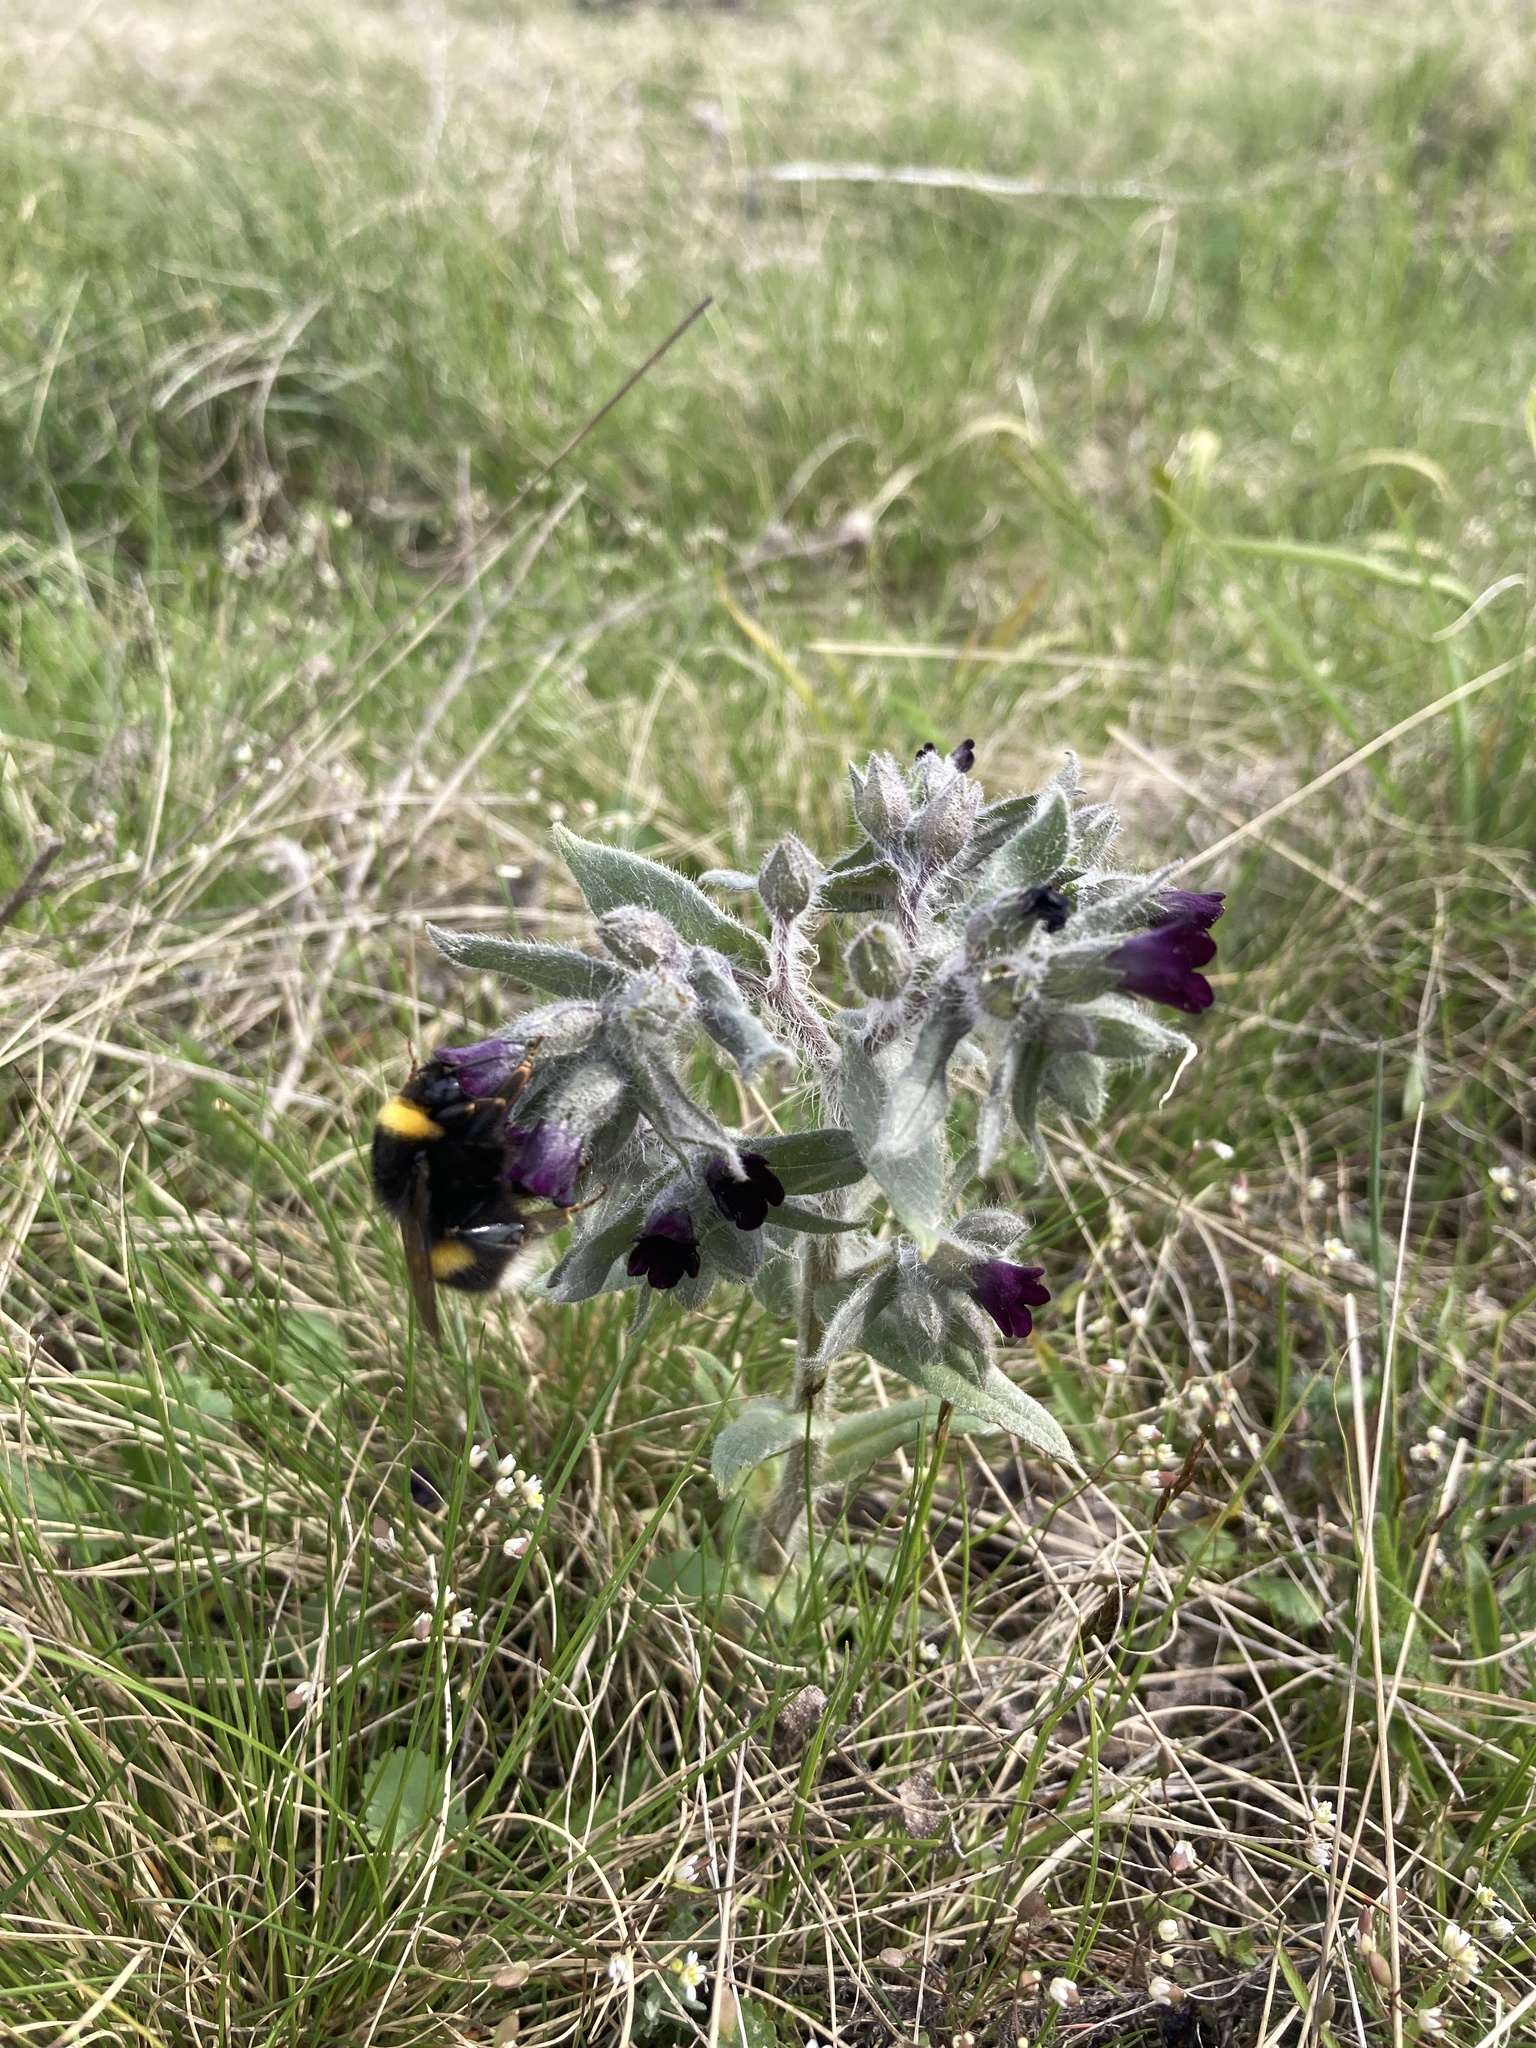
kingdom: Plantae
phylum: Tracheophyta
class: Magnoliopsida
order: Boraginales
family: Boraginaceae
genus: Nonea
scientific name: Nonea pulla
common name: Brown nonea
